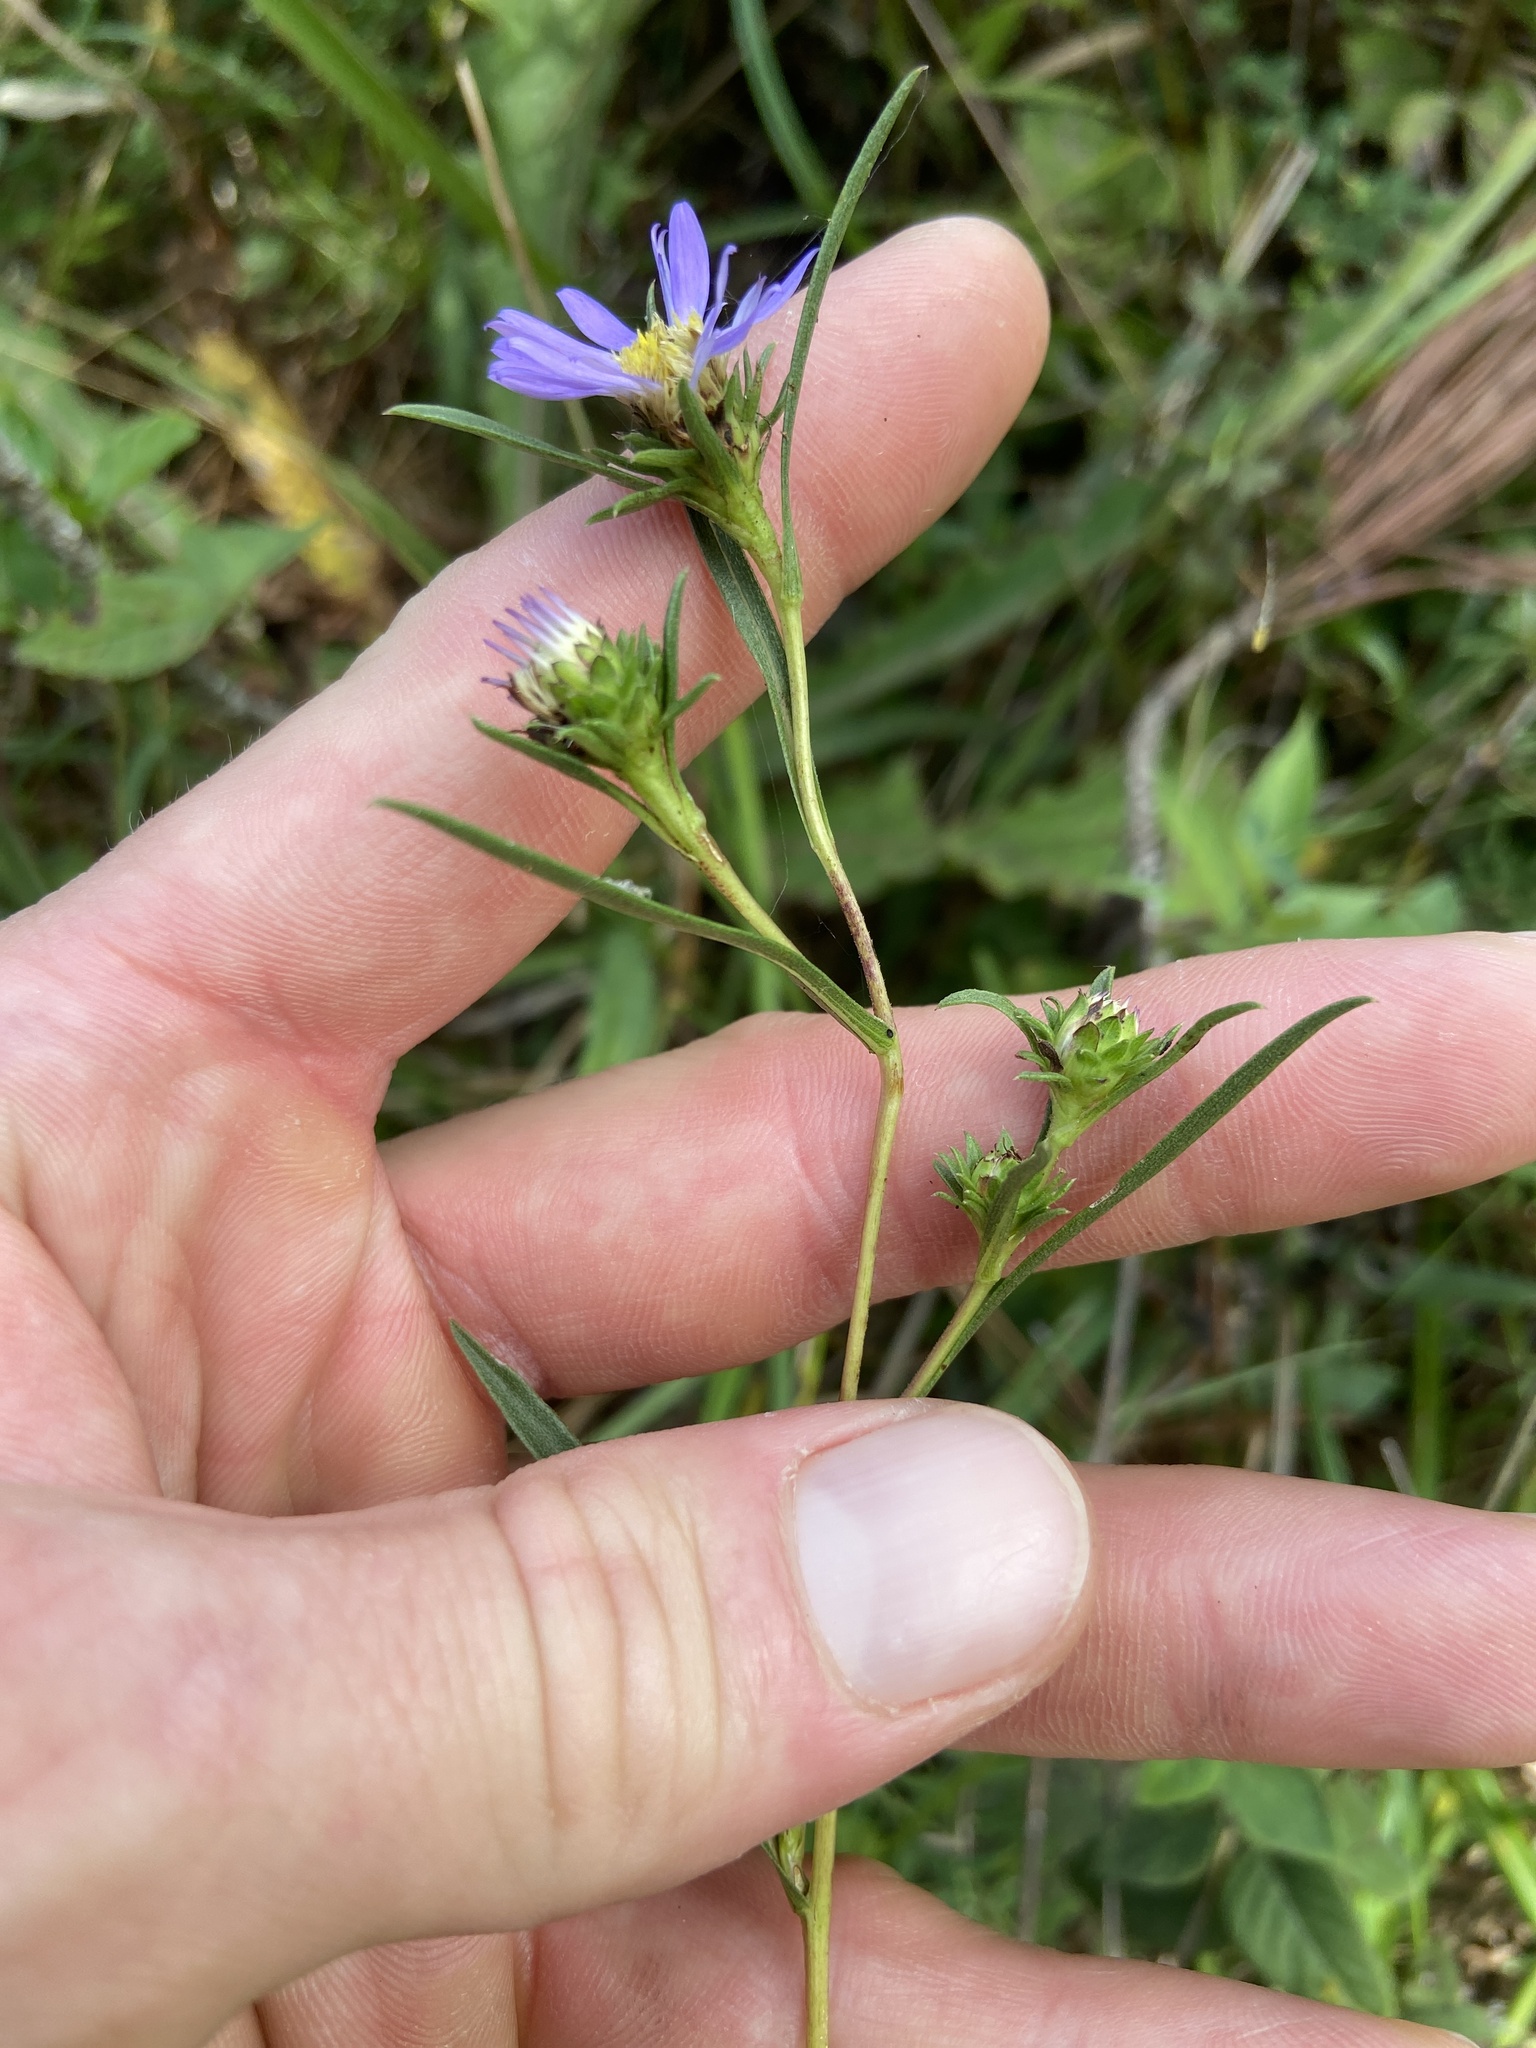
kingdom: Plantae
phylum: Tracheophyta
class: Magnoliopsida
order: Asterales
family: Asteraceae
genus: Eurybia
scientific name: Eurybia hemispherica
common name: Showy aster
